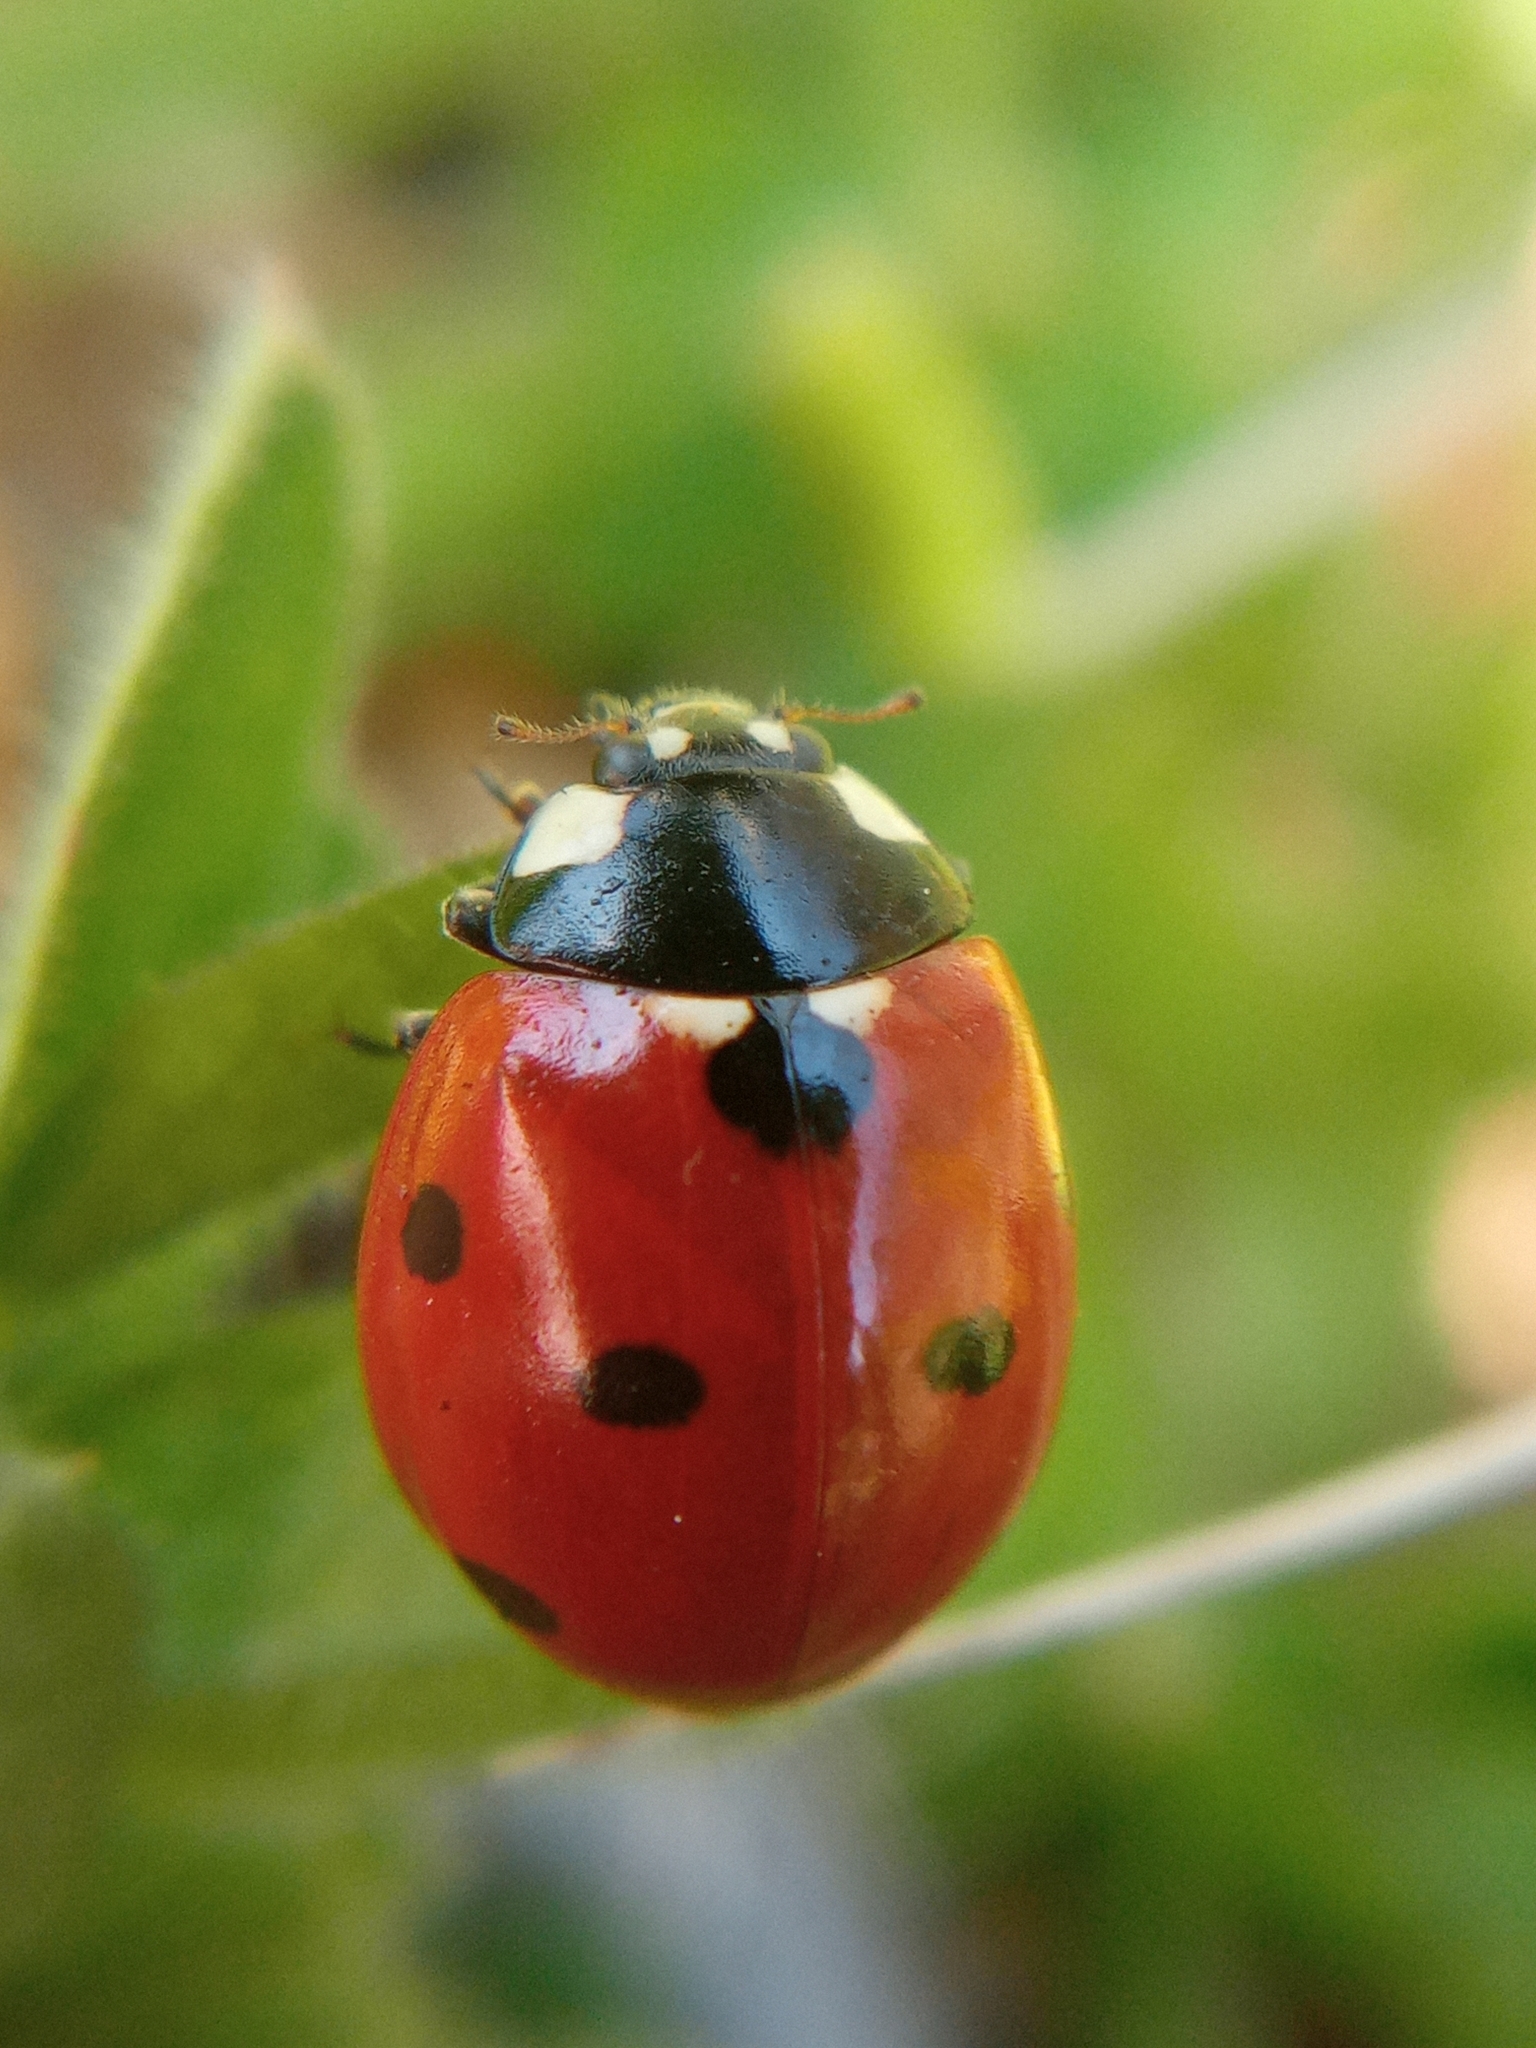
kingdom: Animalia
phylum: Arthropoda
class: Insecta
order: Coleoptera
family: Coccinellidae
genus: Coccinella
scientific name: Coccinella septempunctata
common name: Sevenspotted lady beetle
